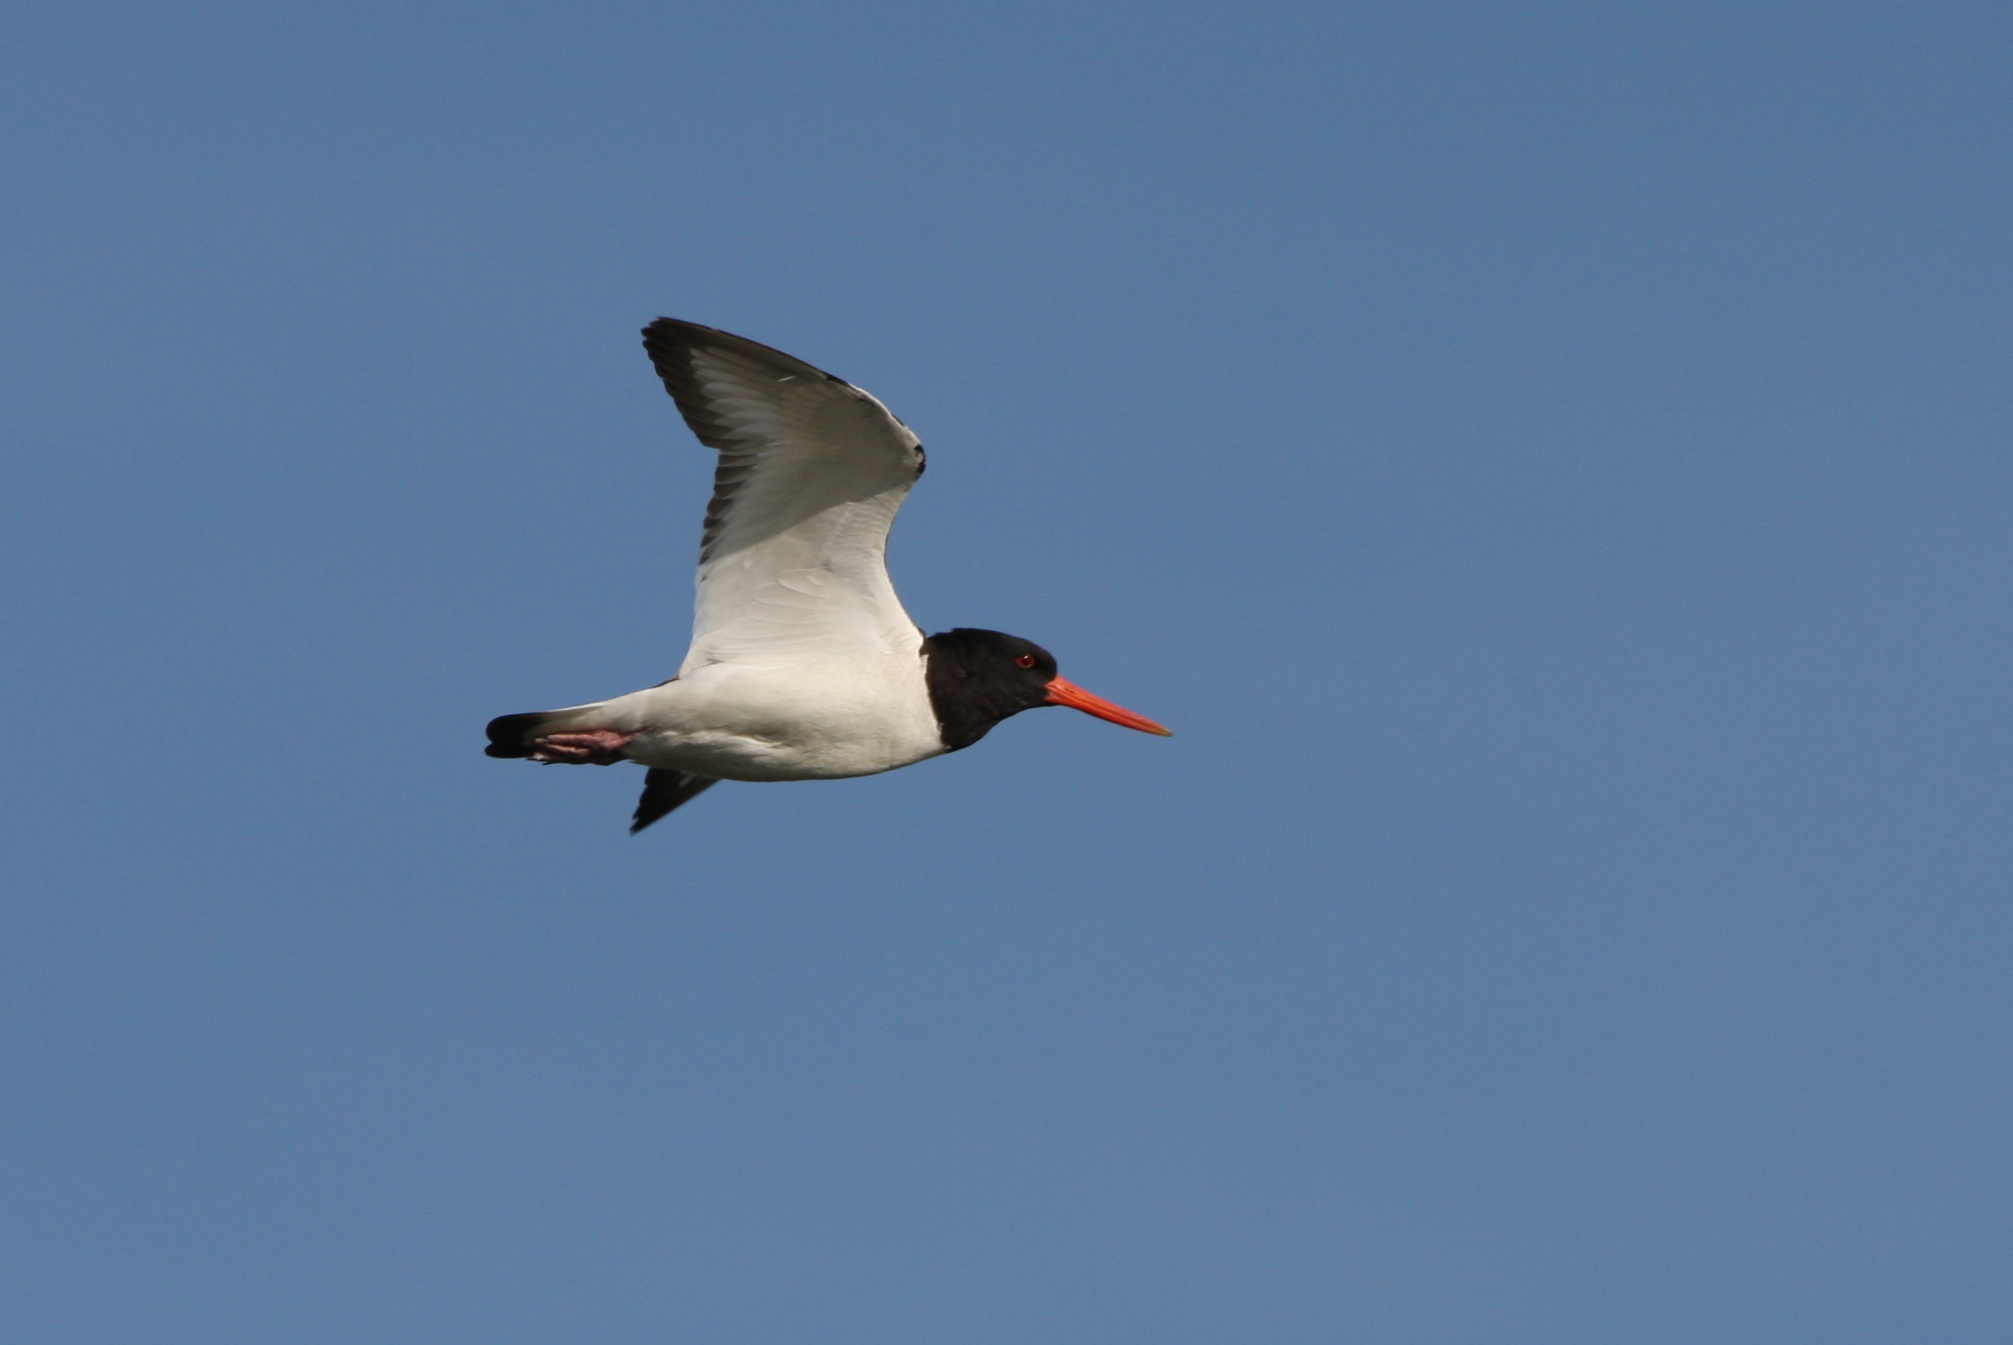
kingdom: Animalia
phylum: Chordata
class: Aves
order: Charadriiformes
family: Haematopodidae
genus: Haematopus
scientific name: Haematopus ostralegus
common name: Eurasian oystercatcher
